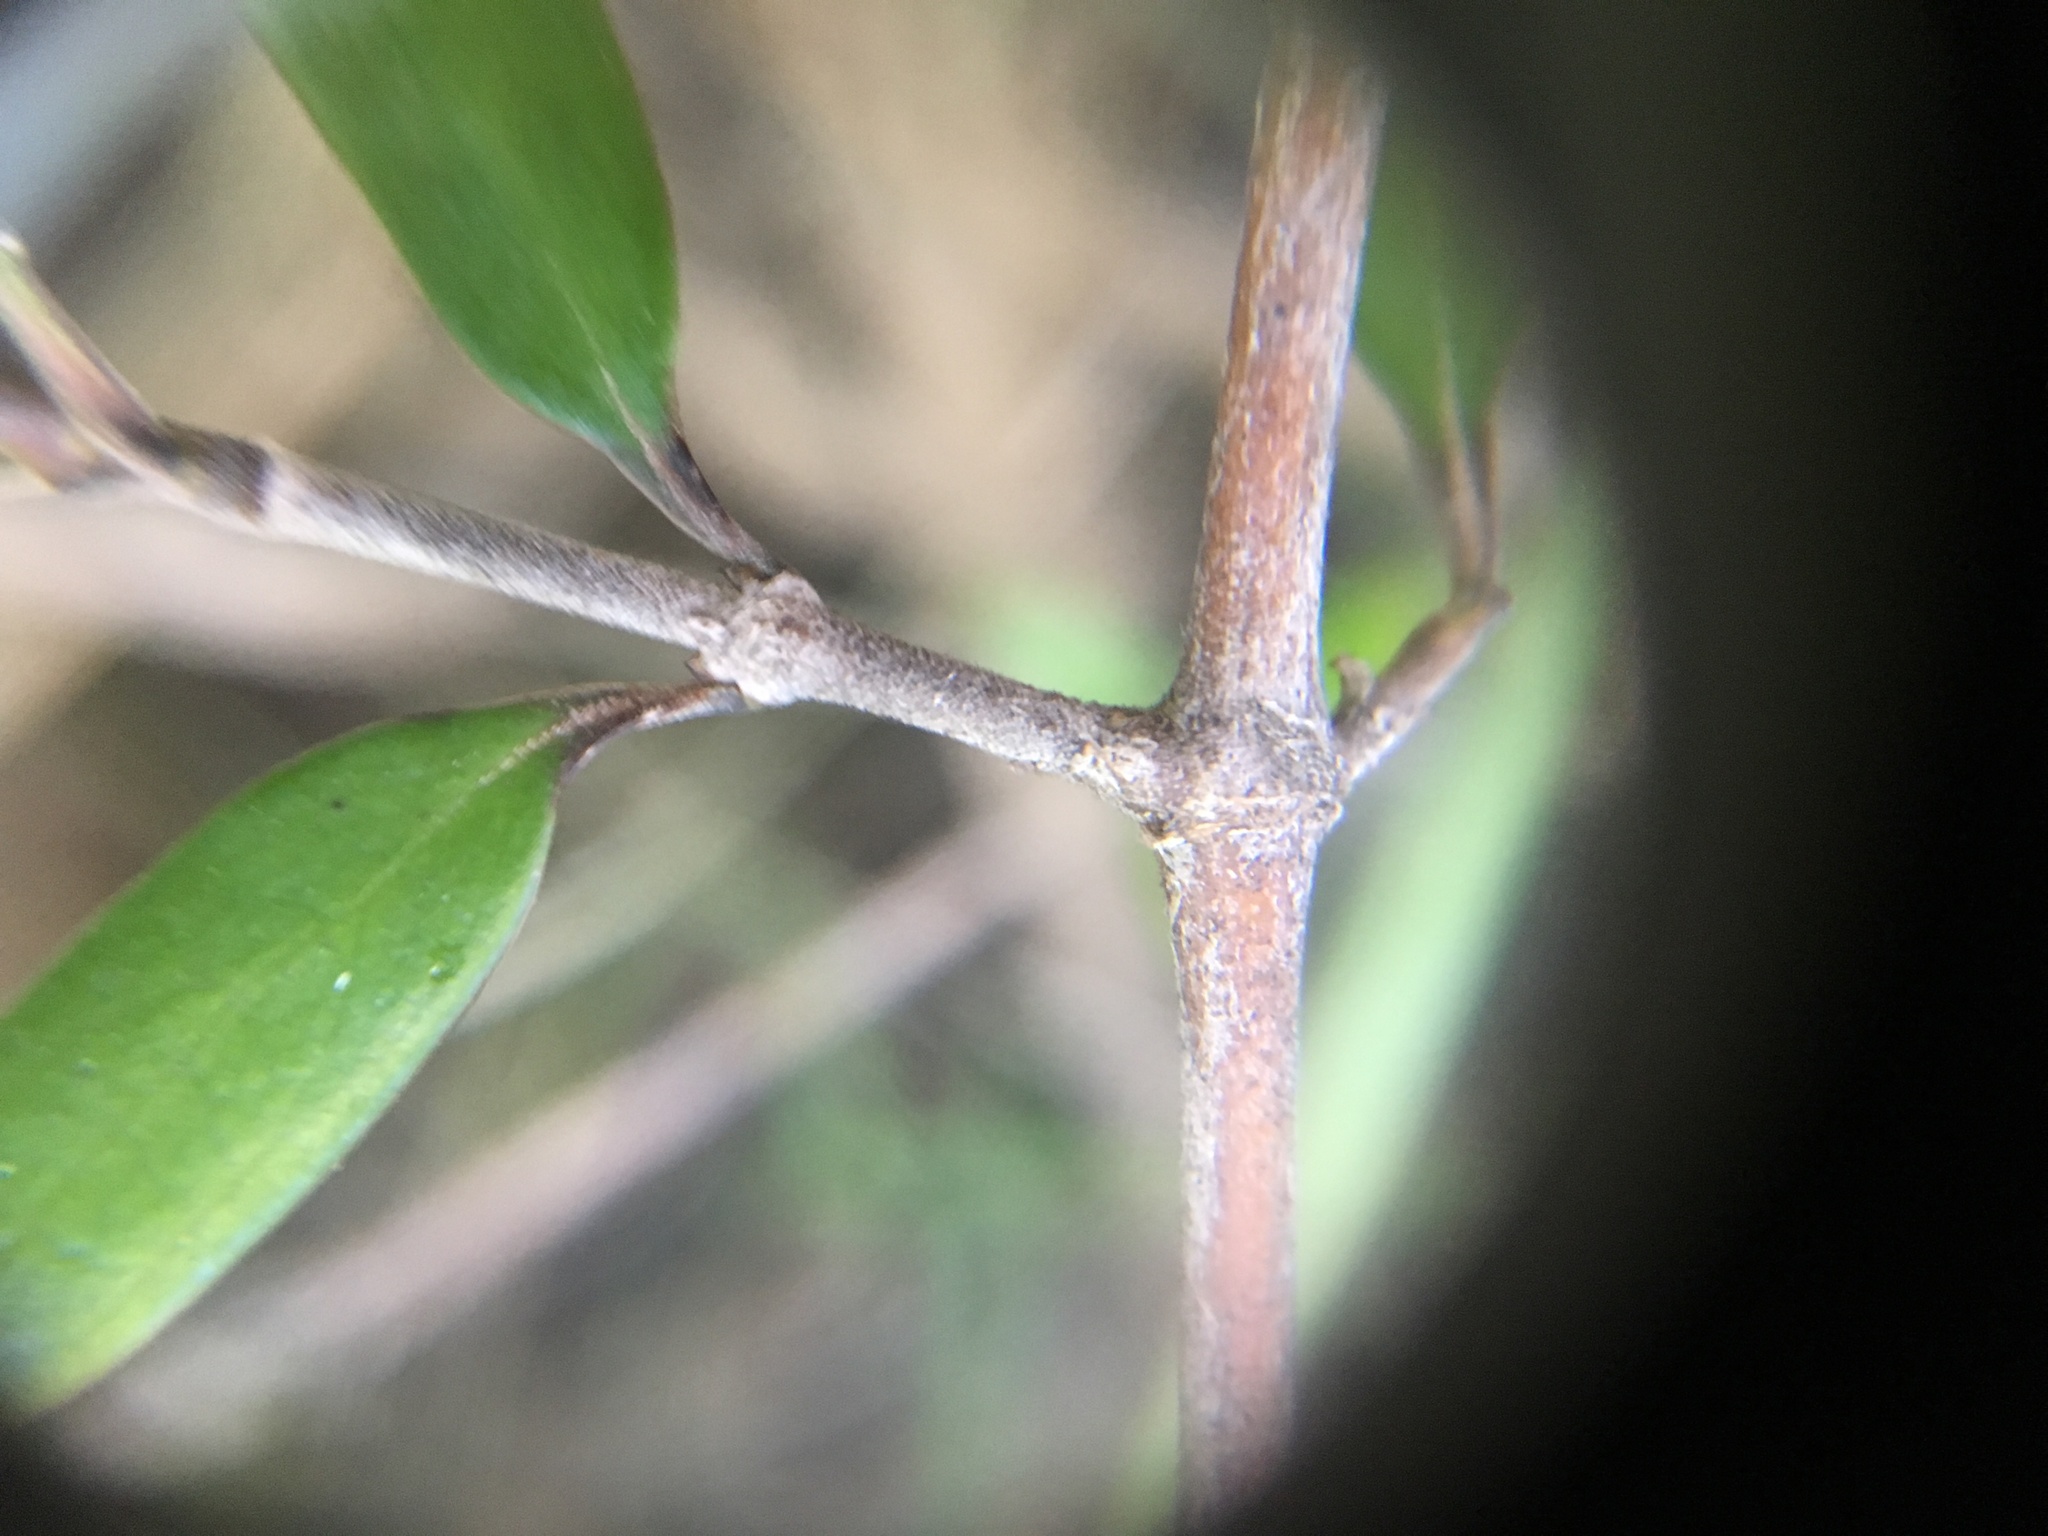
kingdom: Plantae
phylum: Tracheophyta
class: Magnoliopsida
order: Gentianales
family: Rubiaceae
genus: Coprosma
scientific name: Coprosma propinqua
